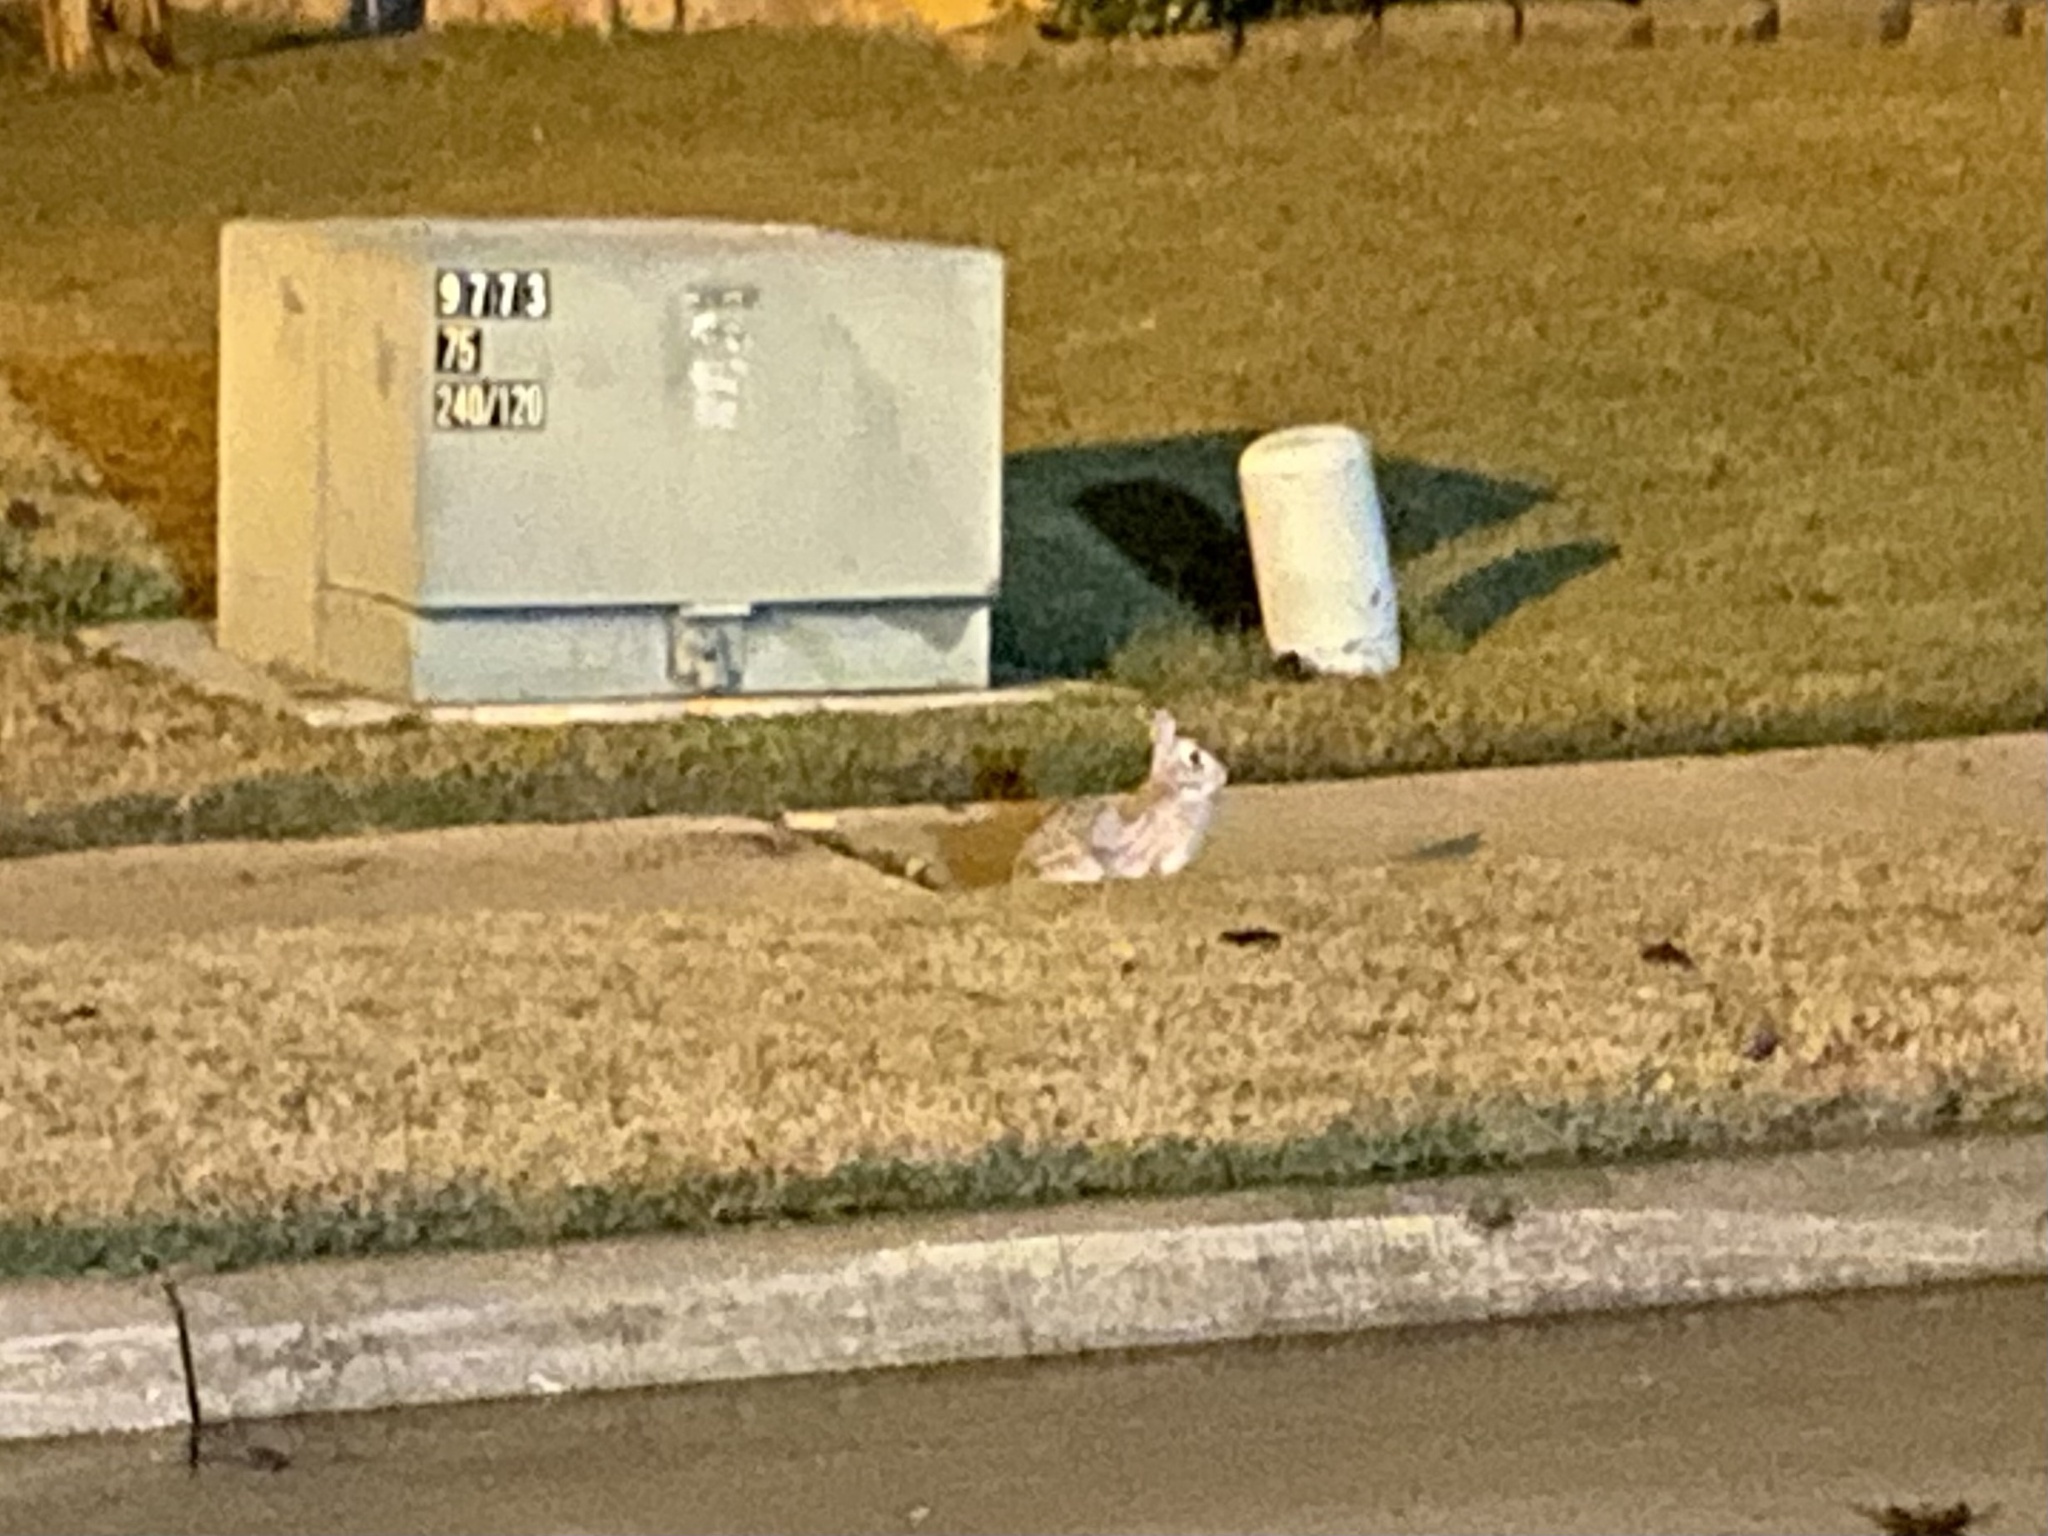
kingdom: Animalia
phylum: Chordata
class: Mammalia
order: Lagomorpha
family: Leporidae
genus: Sylvilagus
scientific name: Sylvilagus floridanus
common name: Eastern cottontail
